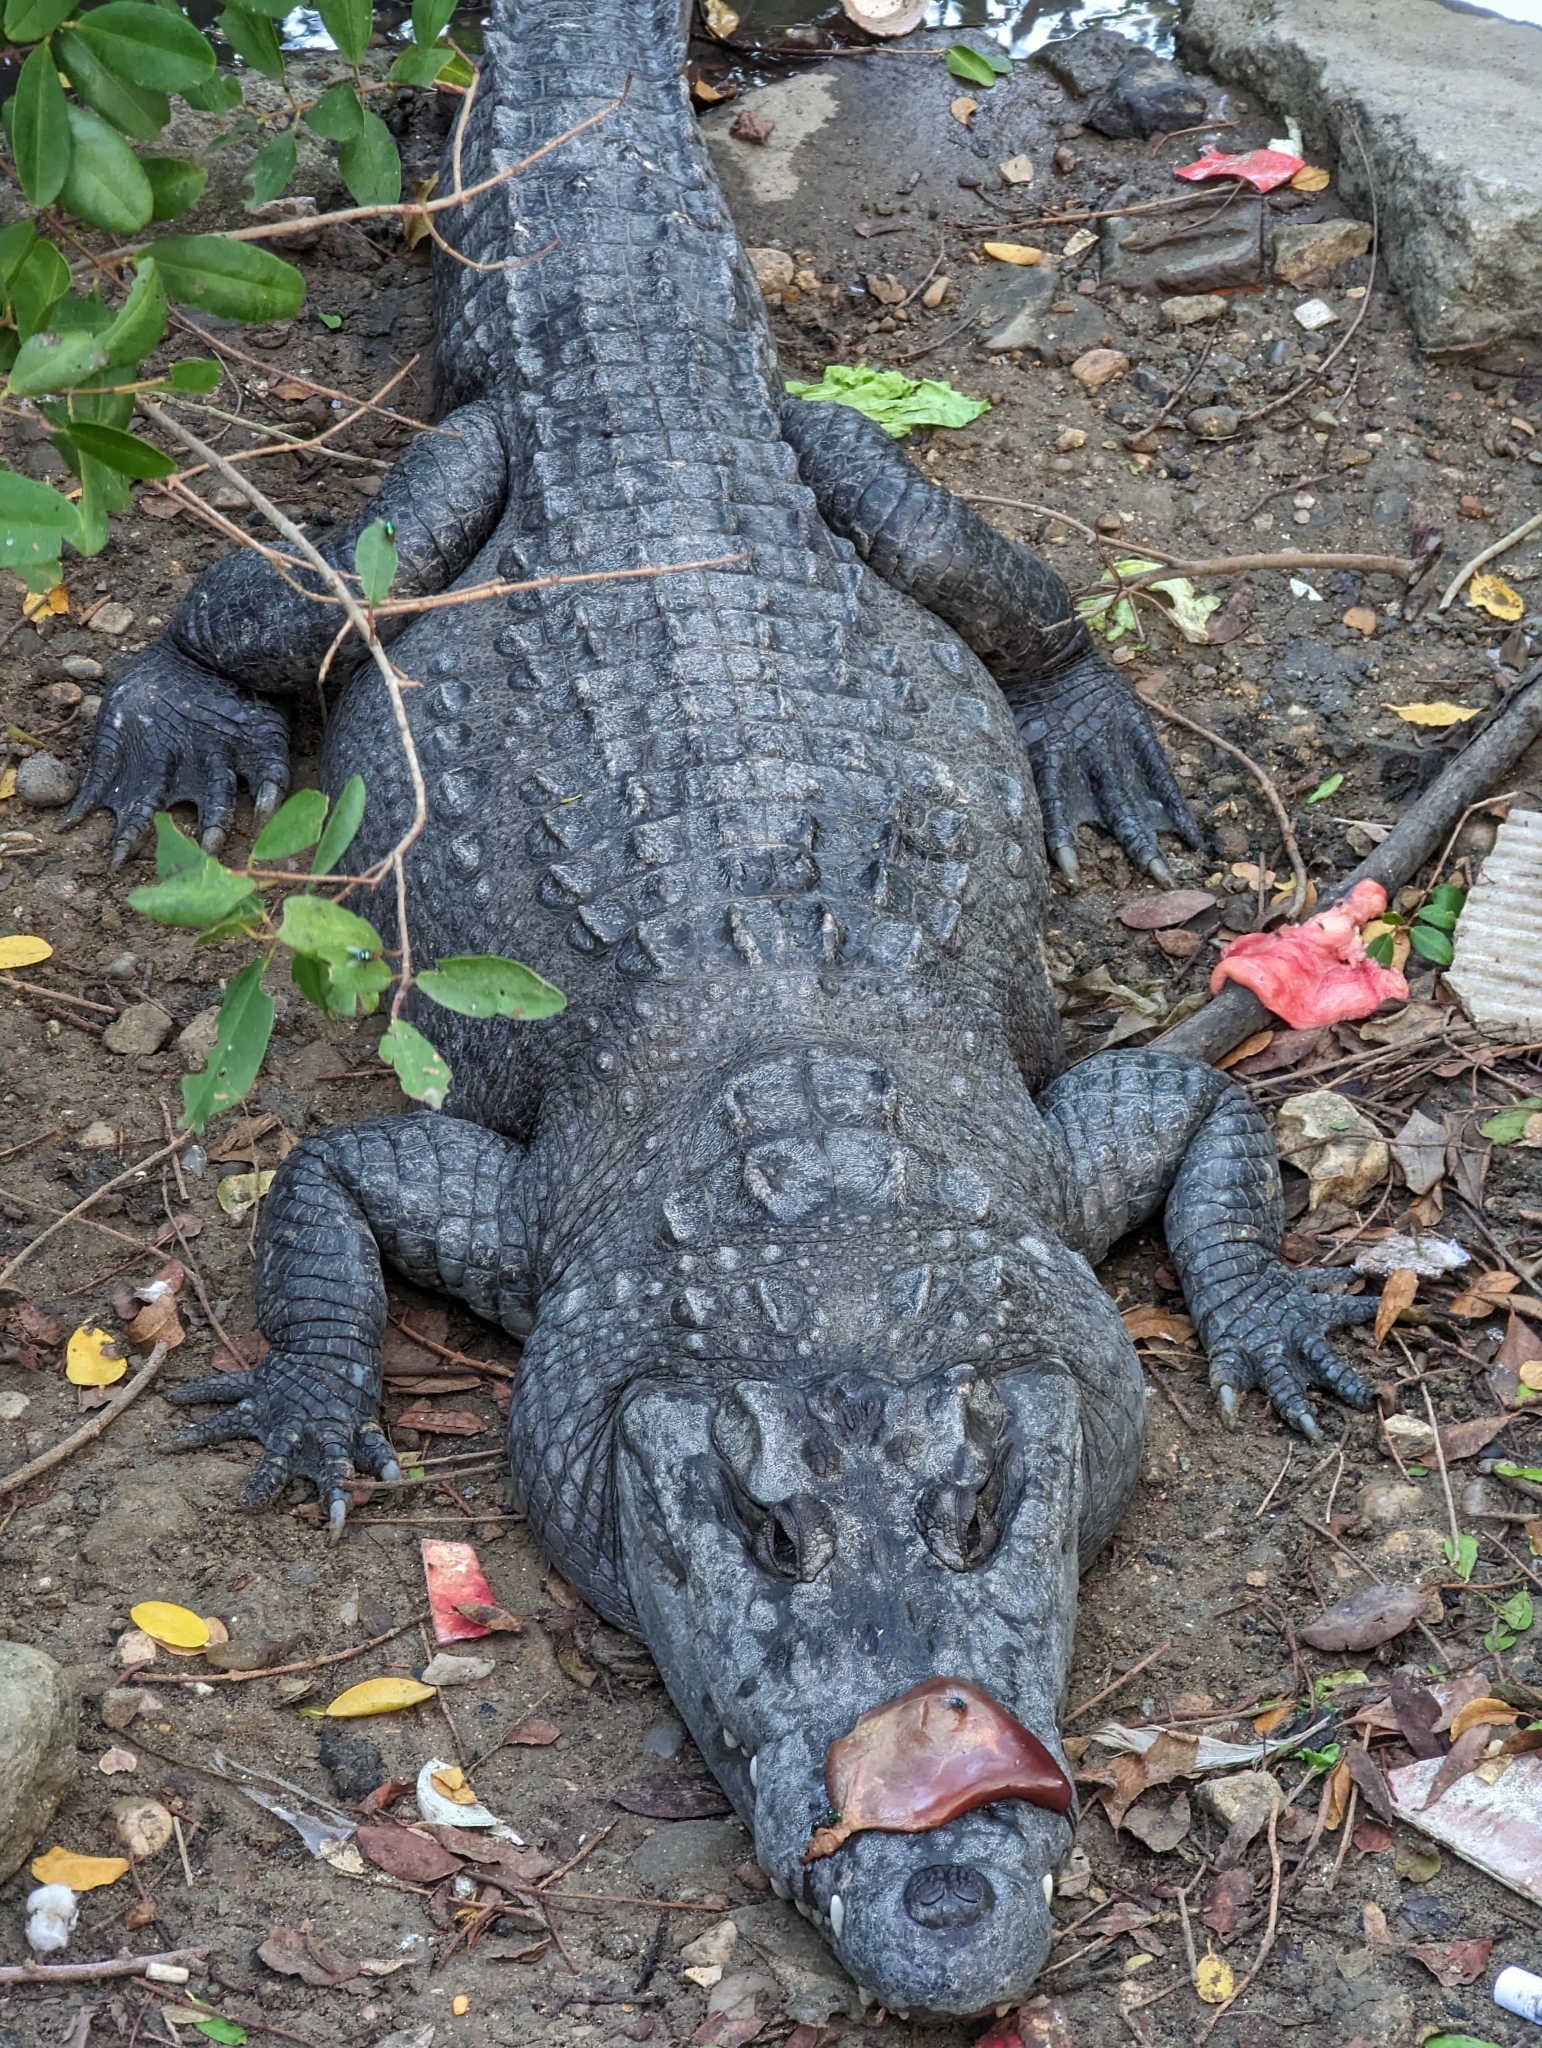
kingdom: Animalia
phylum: Chordata
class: Crocodylia
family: Crocodylidae
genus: Crocodylus
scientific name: Crocodylus moreletii
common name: Morelet's crocodile
